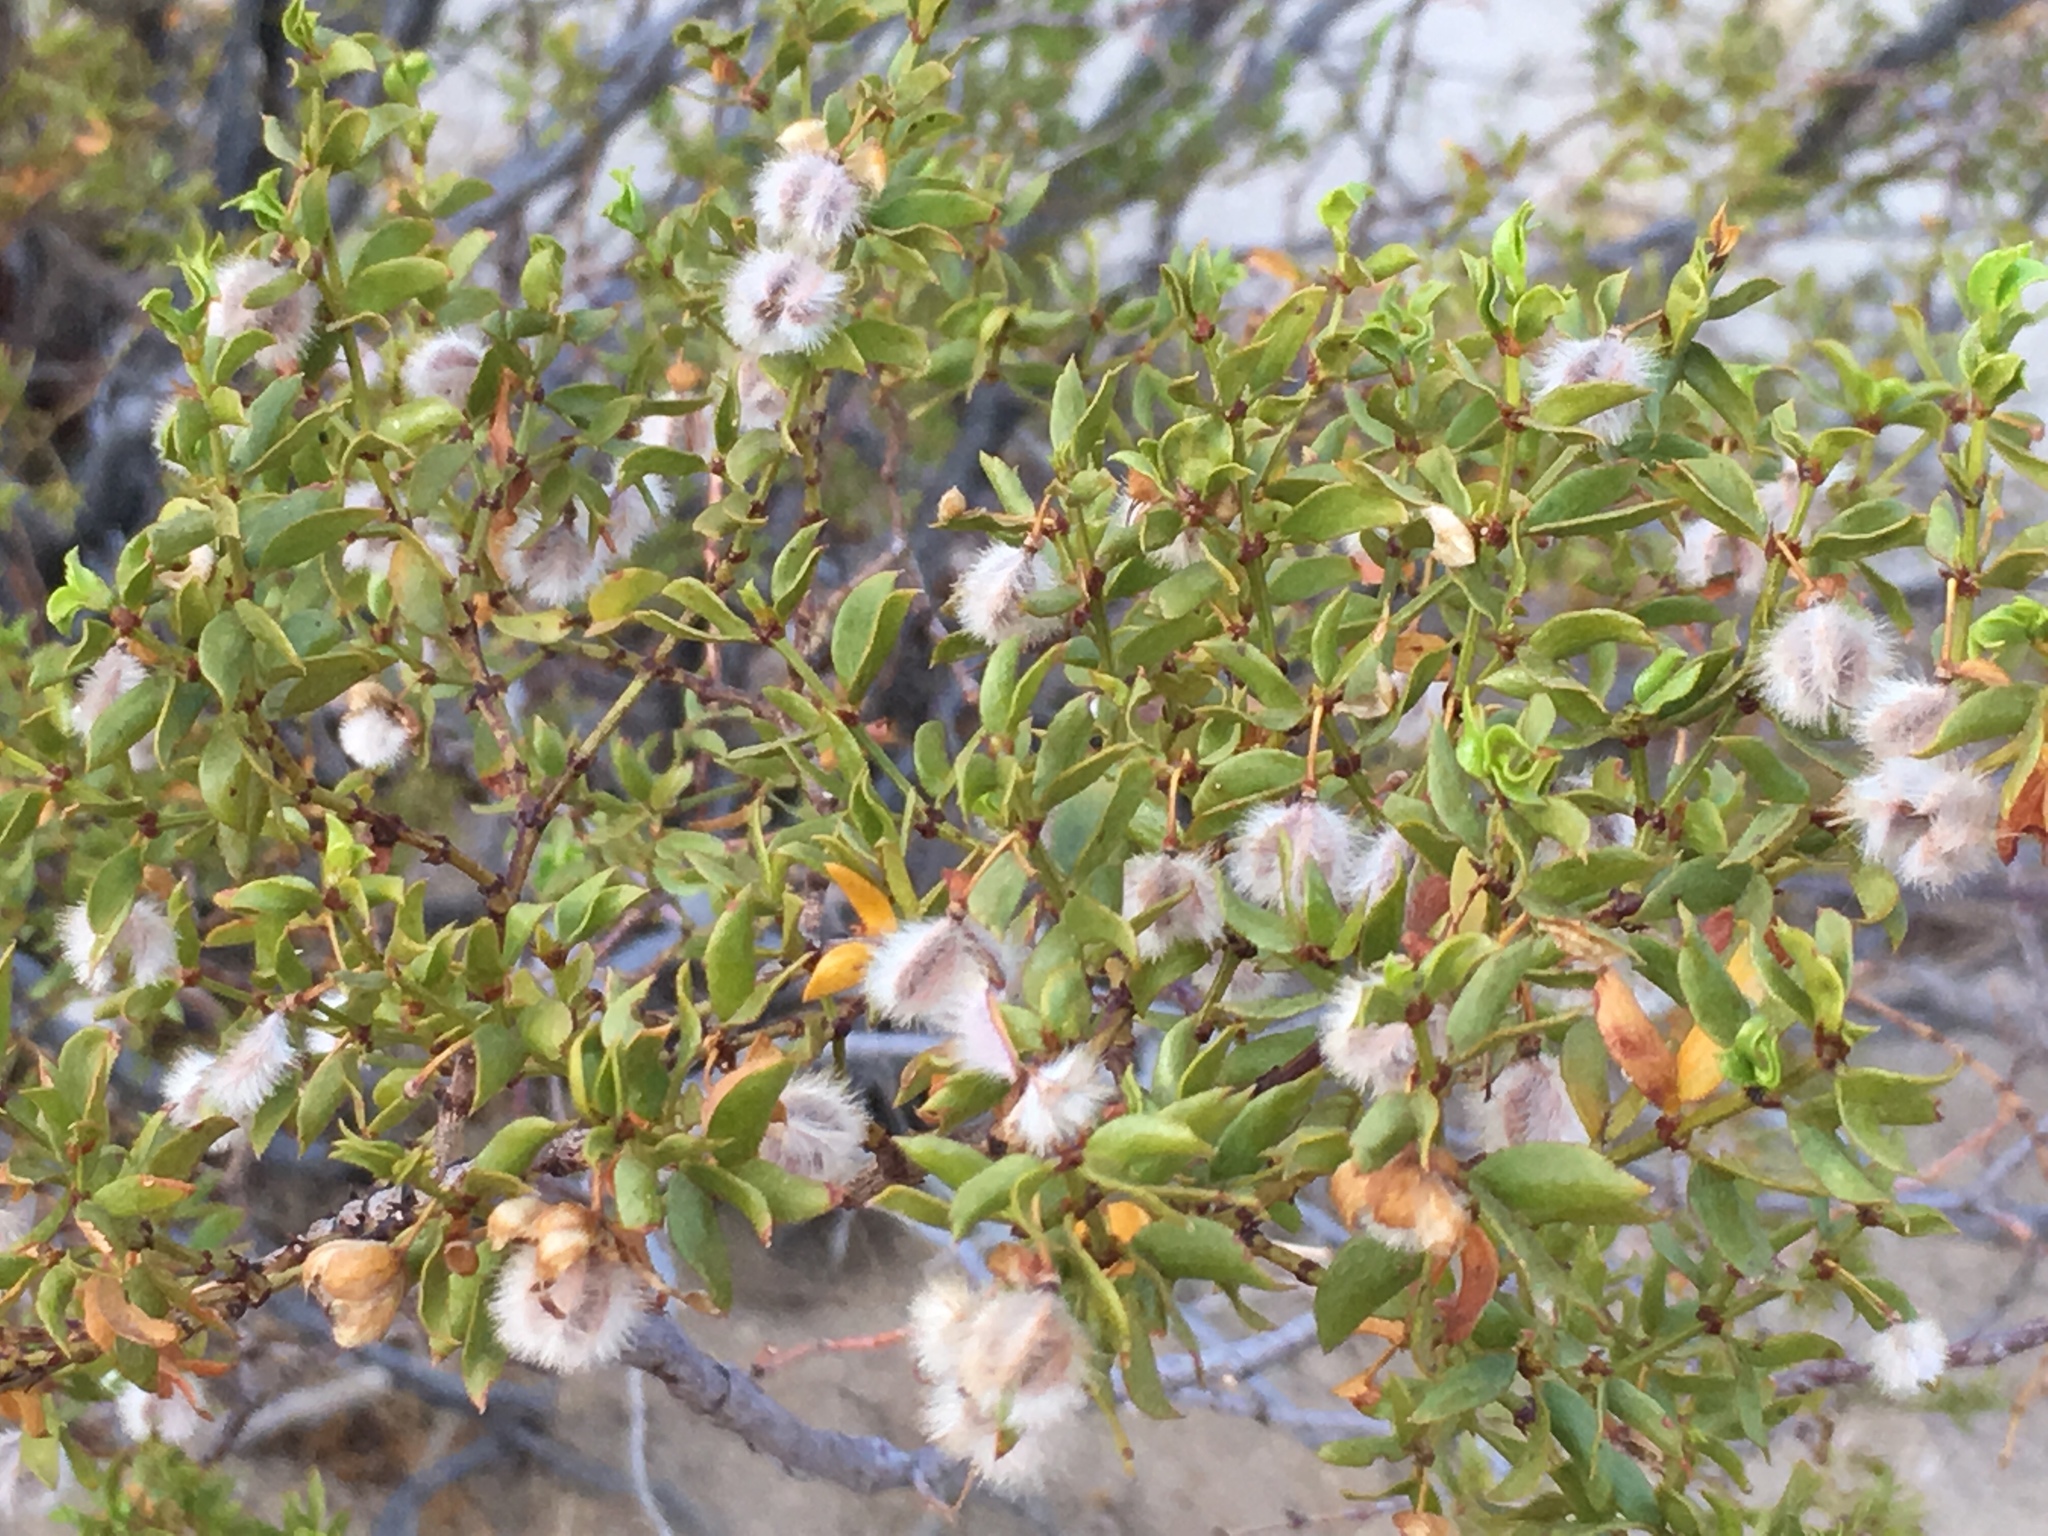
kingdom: Plantae
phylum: Tracheophyta
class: Magnoliopsida
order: Zygophyllales
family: Zygophyllaceae
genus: Larrea
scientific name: Larrea tridentata
